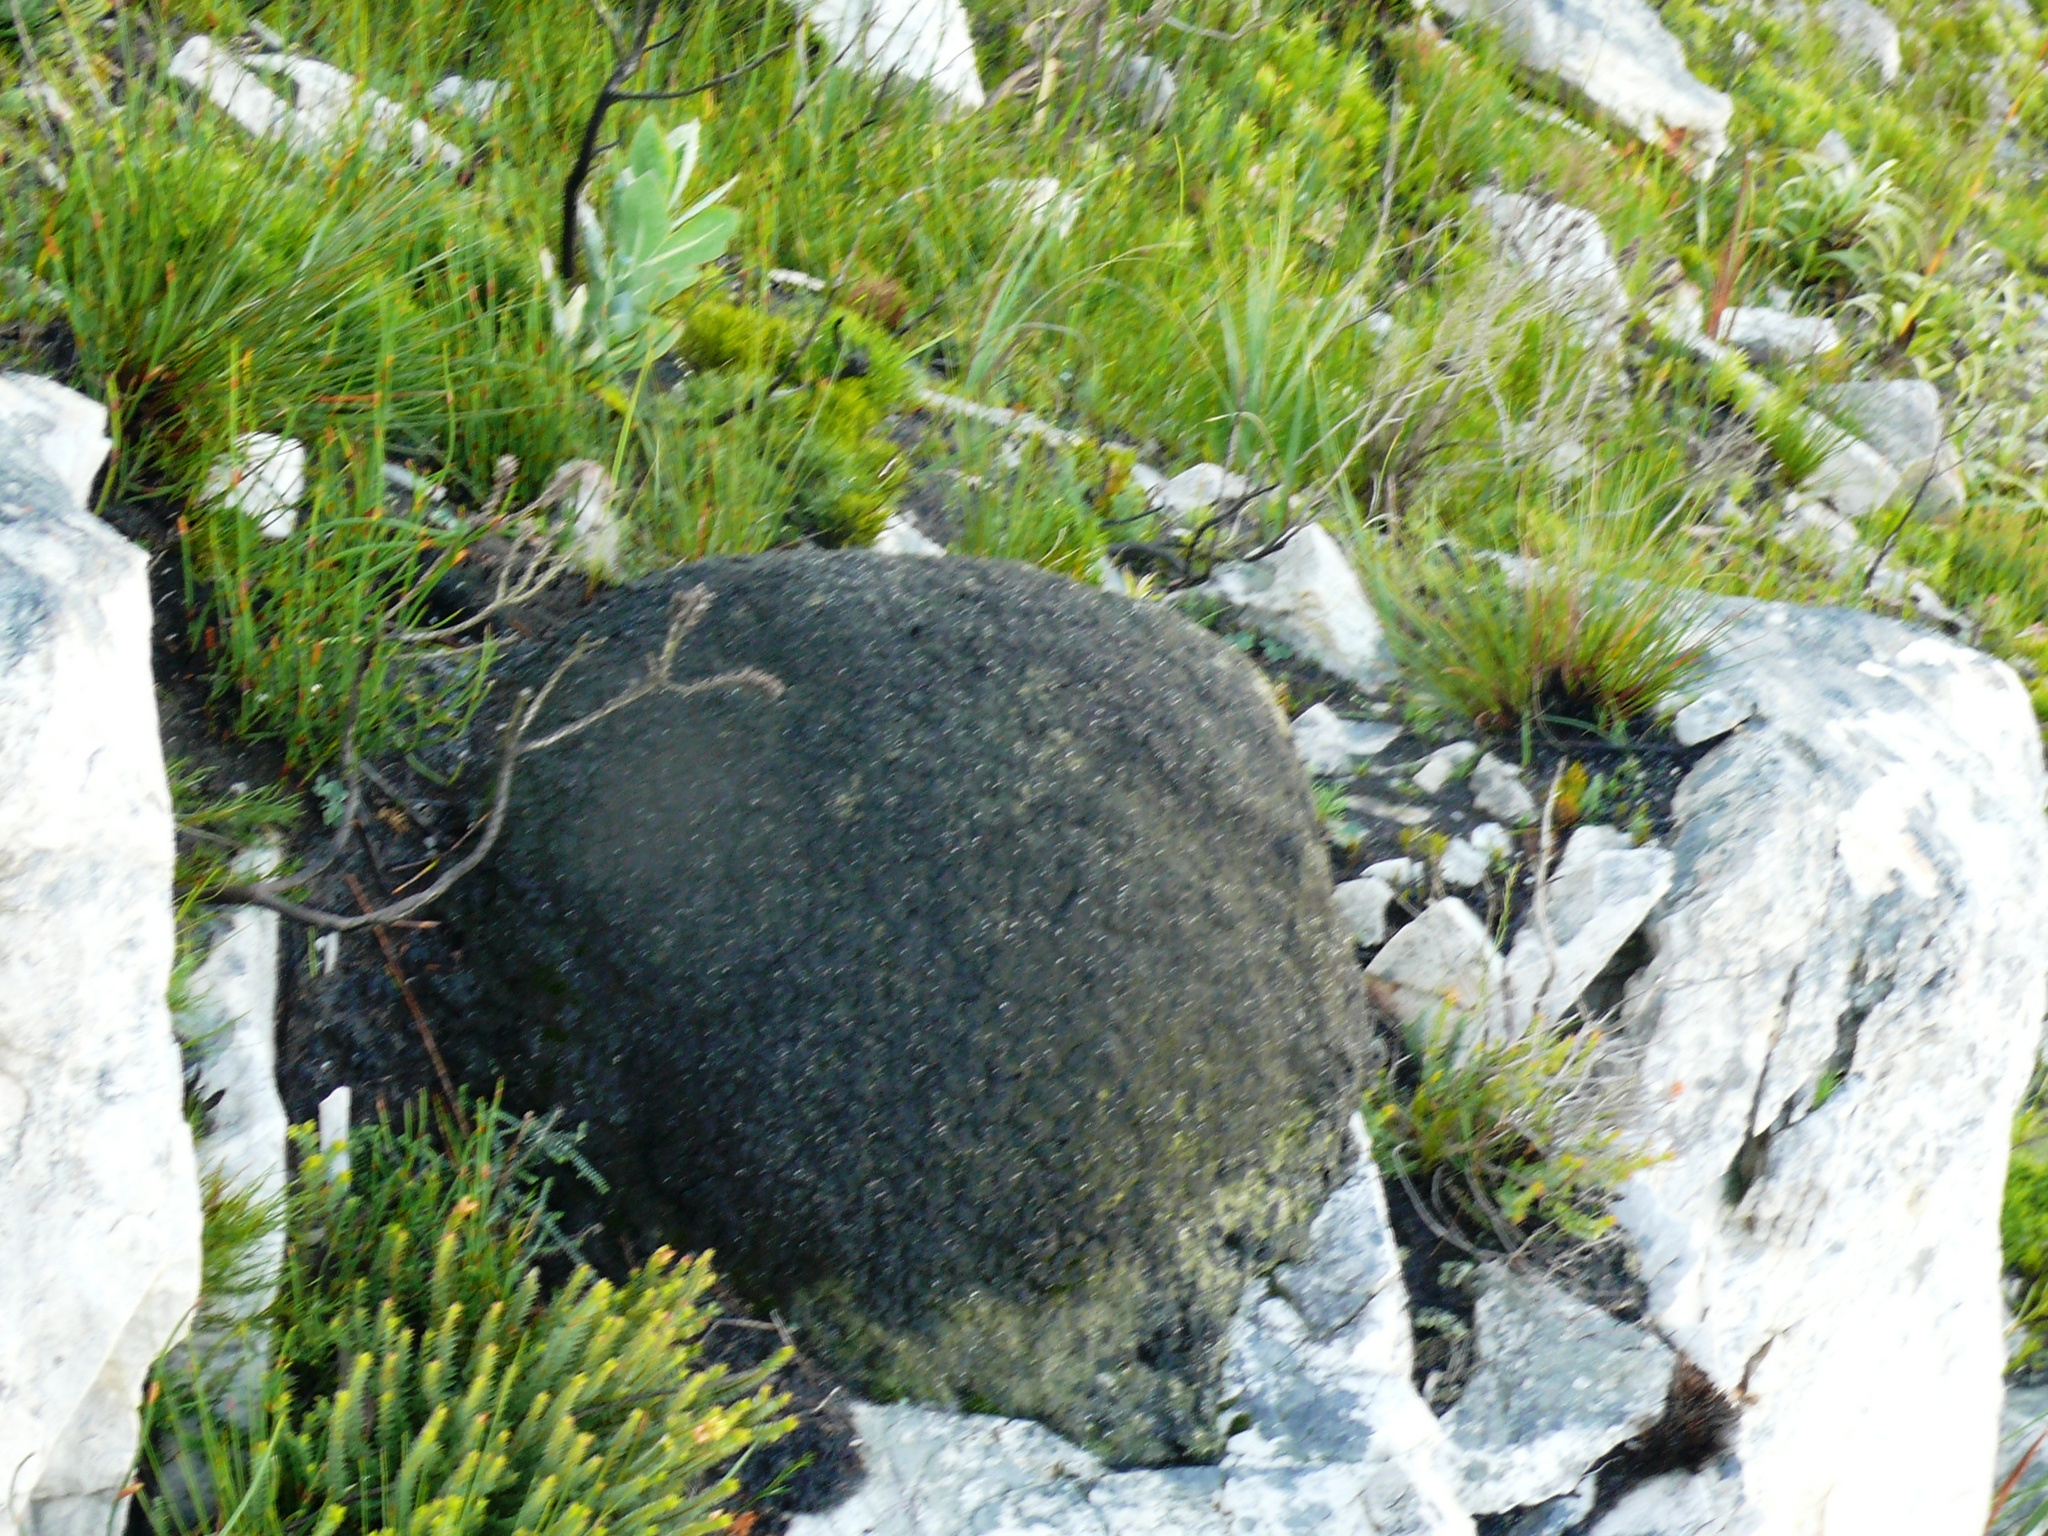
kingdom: Animalia
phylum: Arthropoda
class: Insecta
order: Blattodea
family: Termitidae
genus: Amitermes
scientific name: Amitermes hastatus
